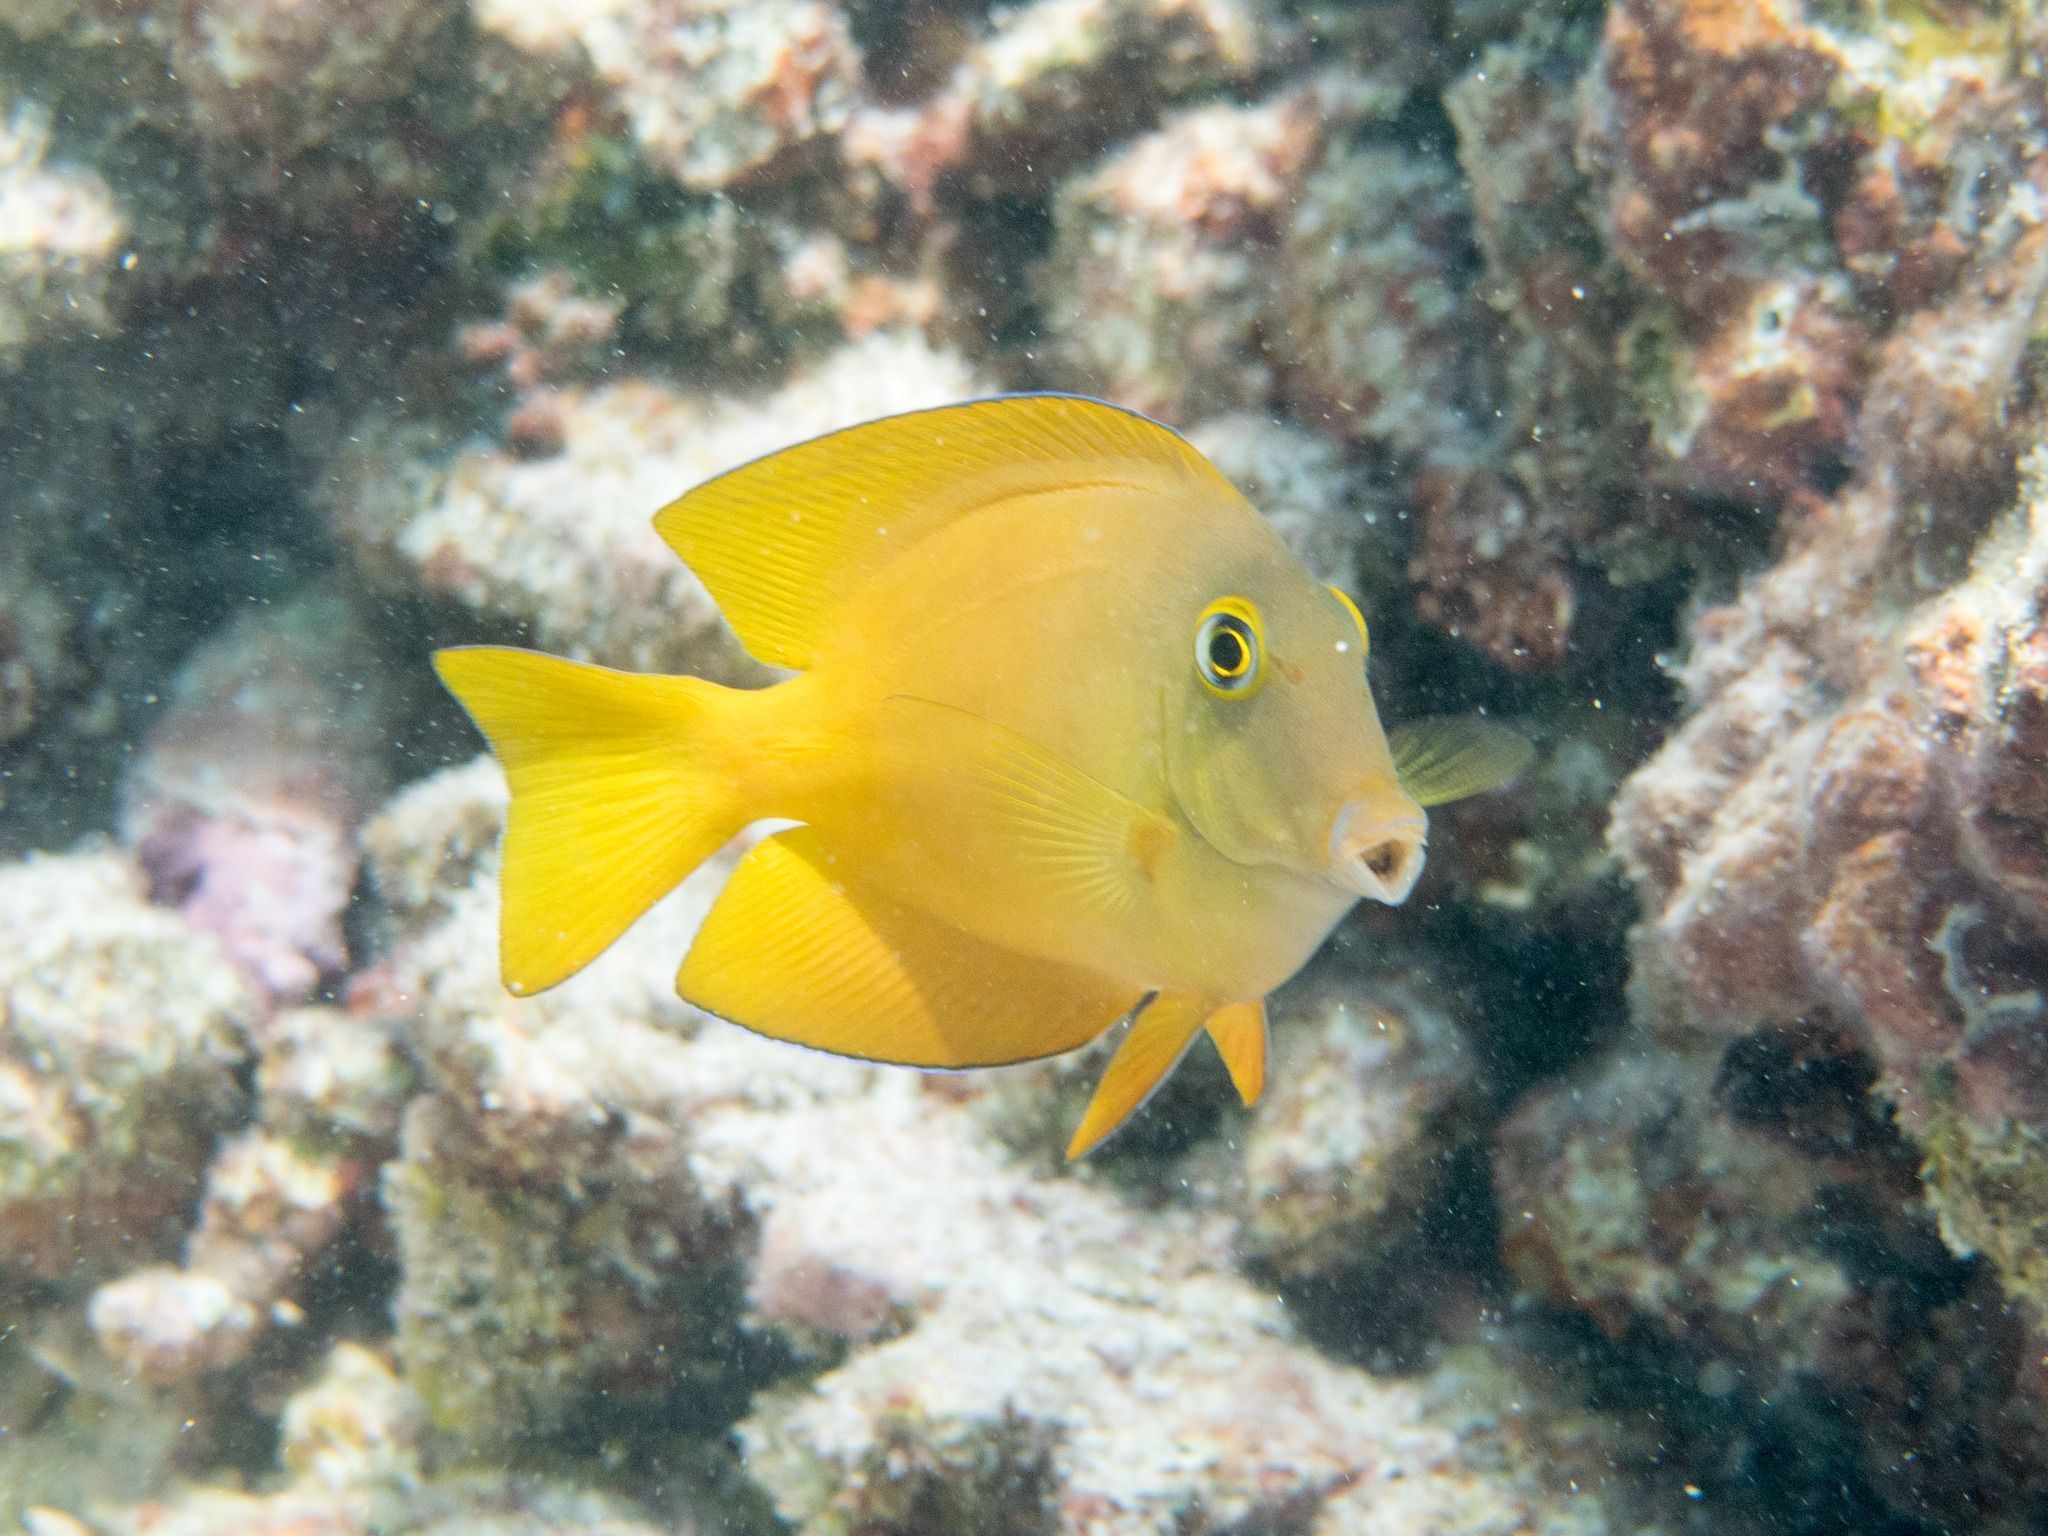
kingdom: Animalia
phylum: Chordata
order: Perciformes
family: Acanthuridae
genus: Ctenochaetus
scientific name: Ctenochaetus truncatus
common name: Indian gold-ring bristle-tooth
